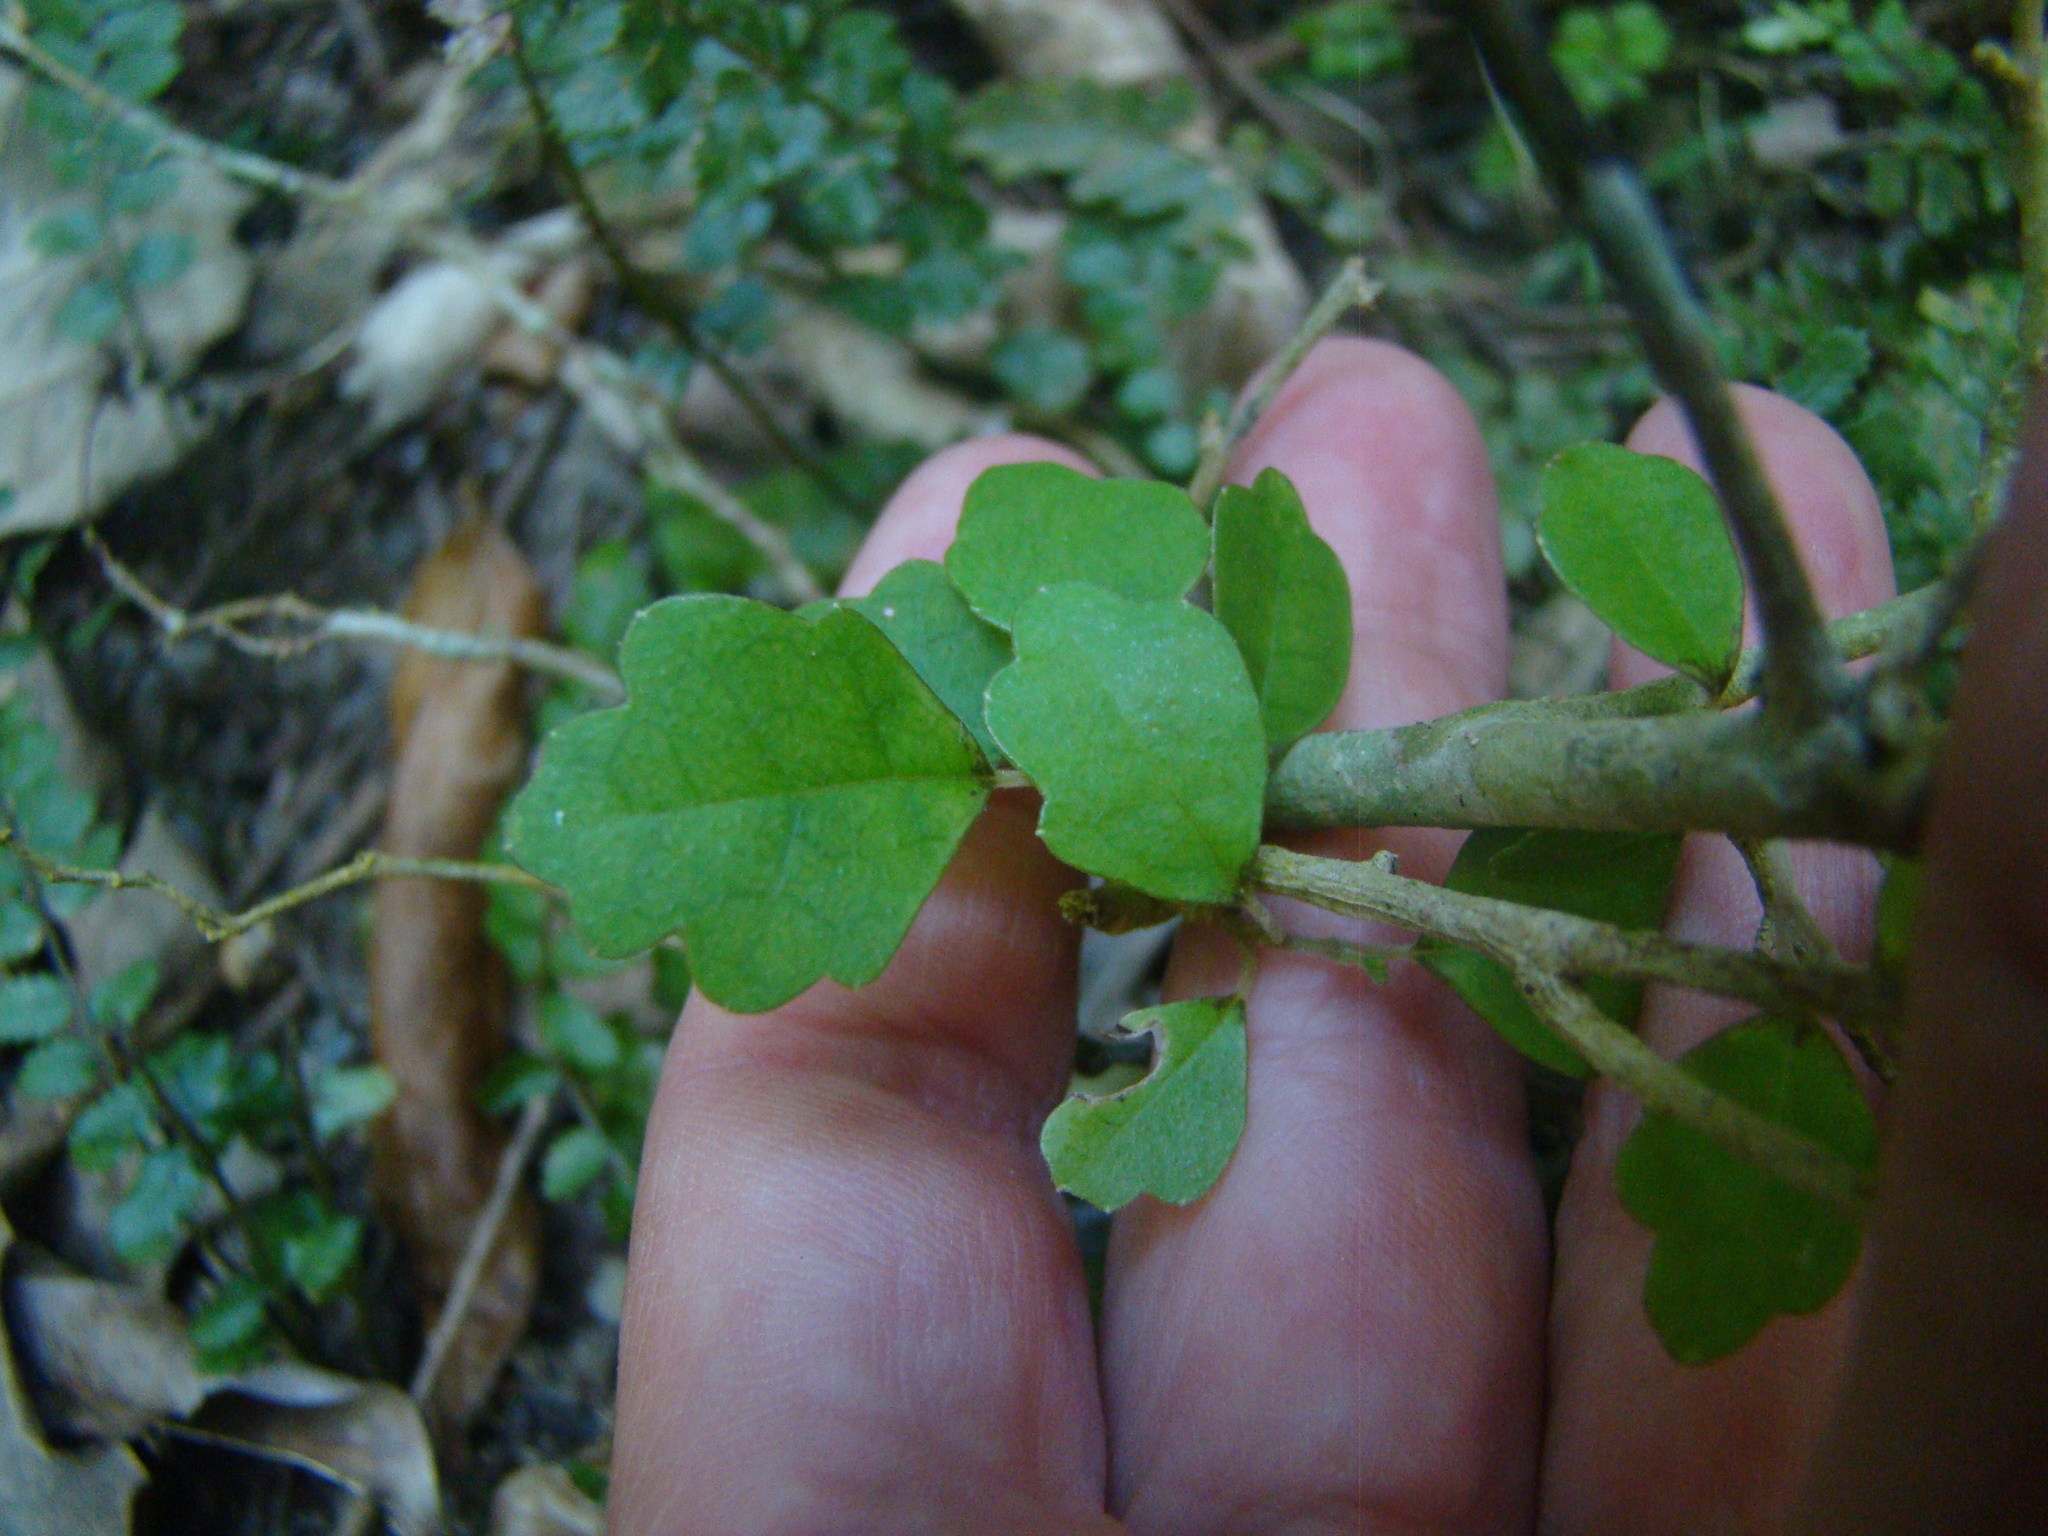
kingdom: Plantae
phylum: Tracheophyta
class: Magnoliopsida
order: Apiales
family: Pennantiaceae
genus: Pennantia
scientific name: Pennantia corymbosa
